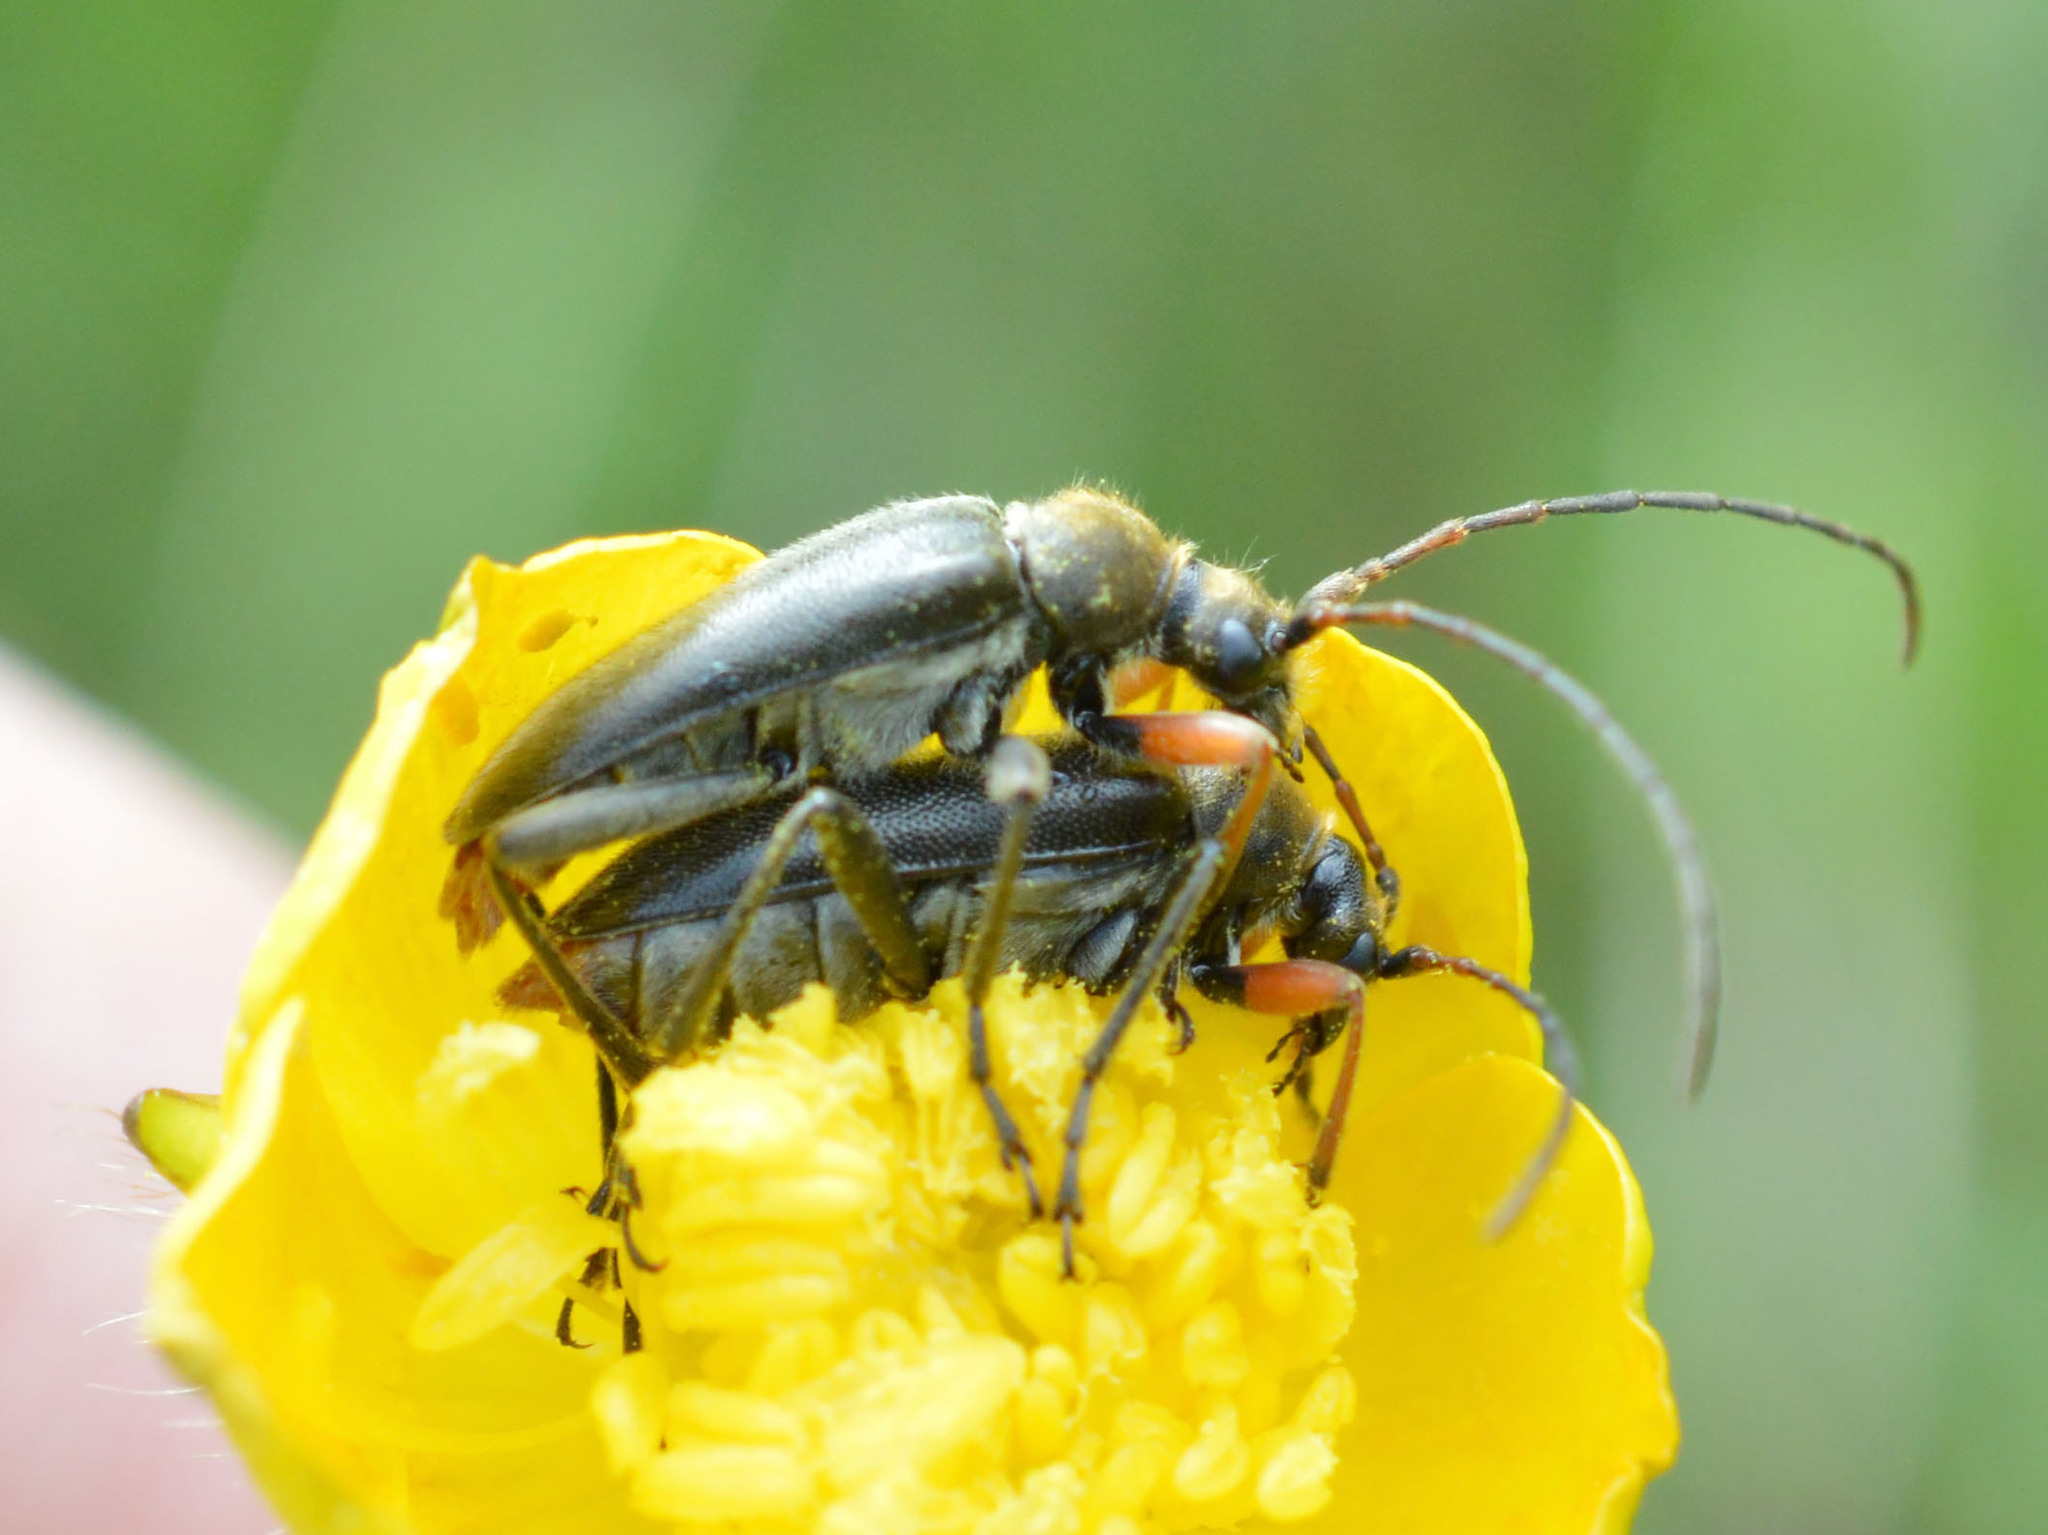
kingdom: Animalia
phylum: Arthropoda
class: Insecta
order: Coleoptera
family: Cerambycidae
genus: Cortodera
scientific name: Cortodera flavimana
